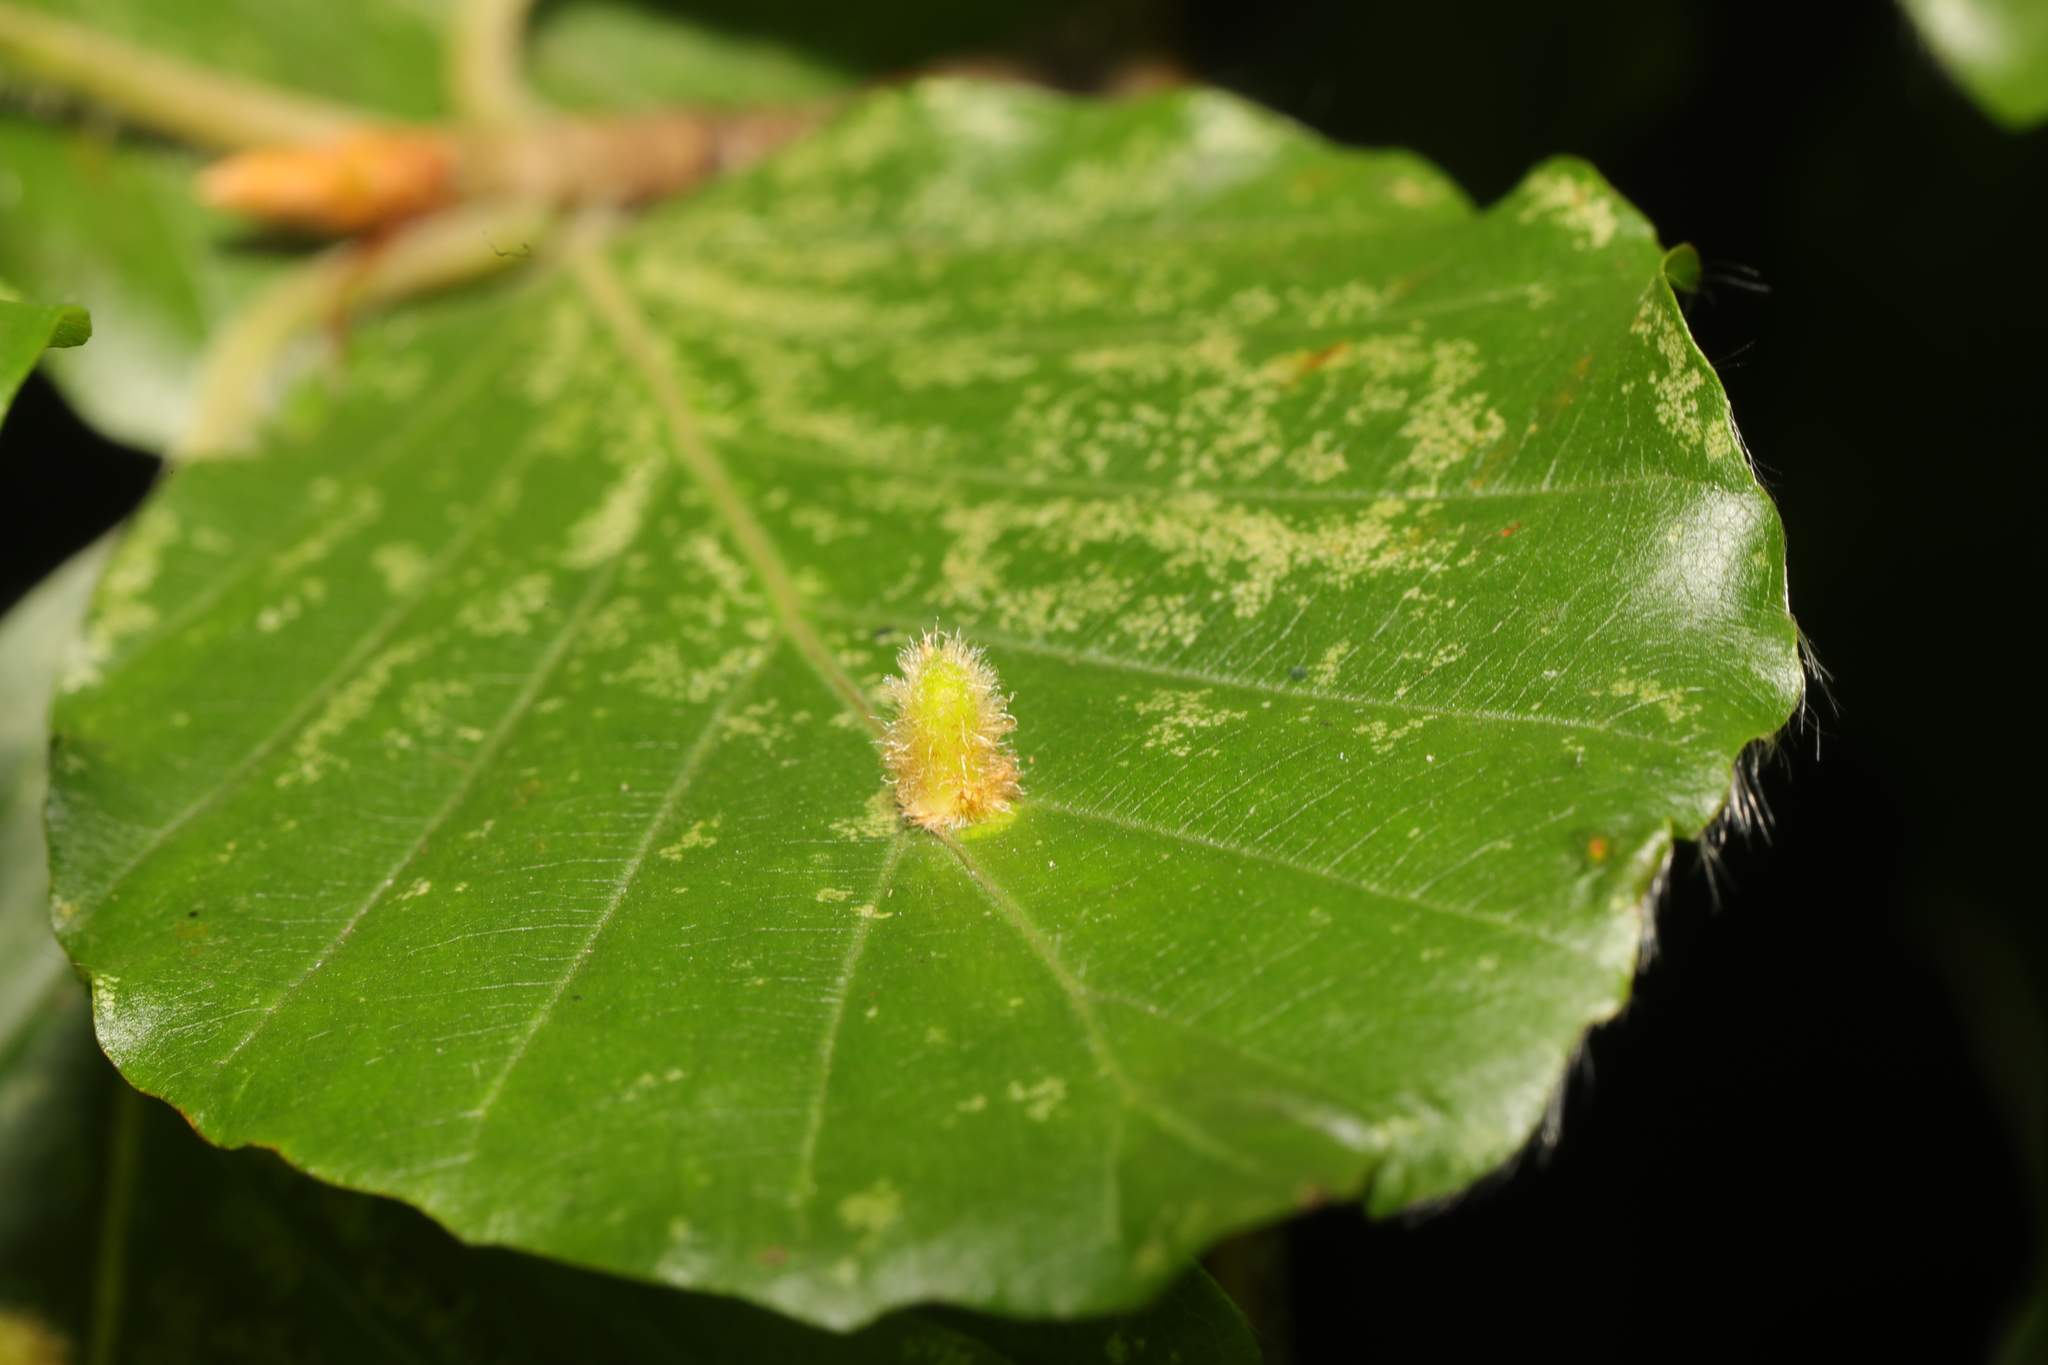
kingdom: Animalia
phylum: Arthropoda
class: Insecta
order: Diptera
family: Cecidomyiidae
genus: Hartigiola
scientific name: Hartigiola annulipes
